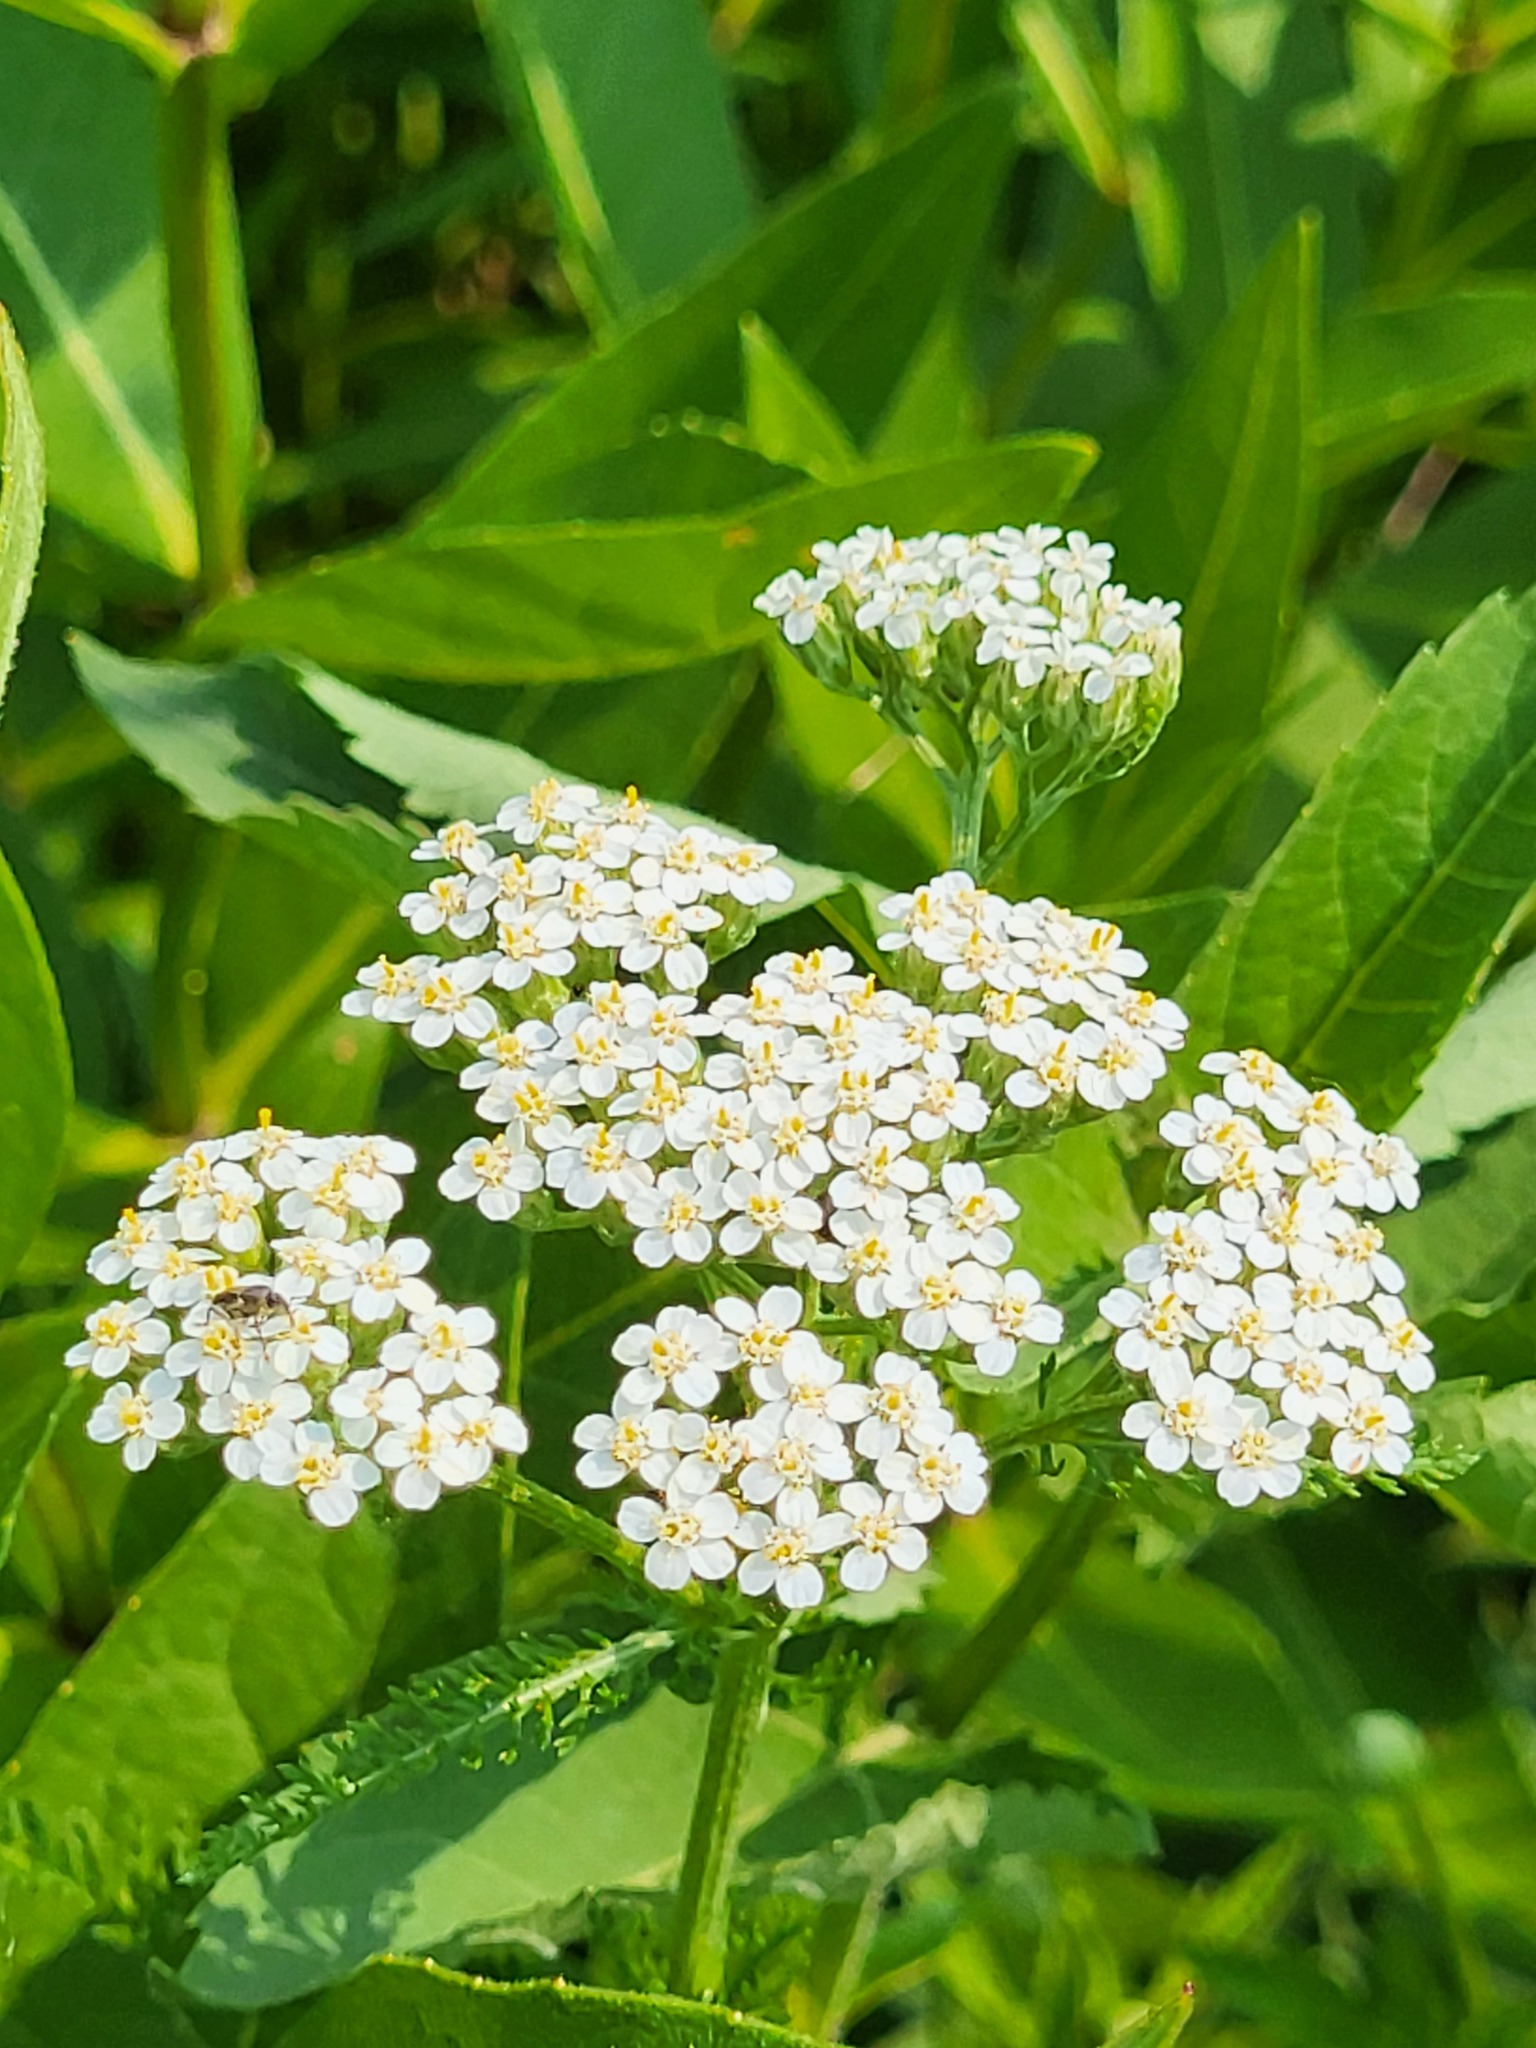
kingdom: Plantae
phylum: Tracheophyta
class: Magnoliopsida
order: Asterales
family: Asteraceae
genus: Achillea
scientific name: Achillea millefolium
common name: Yarrow
